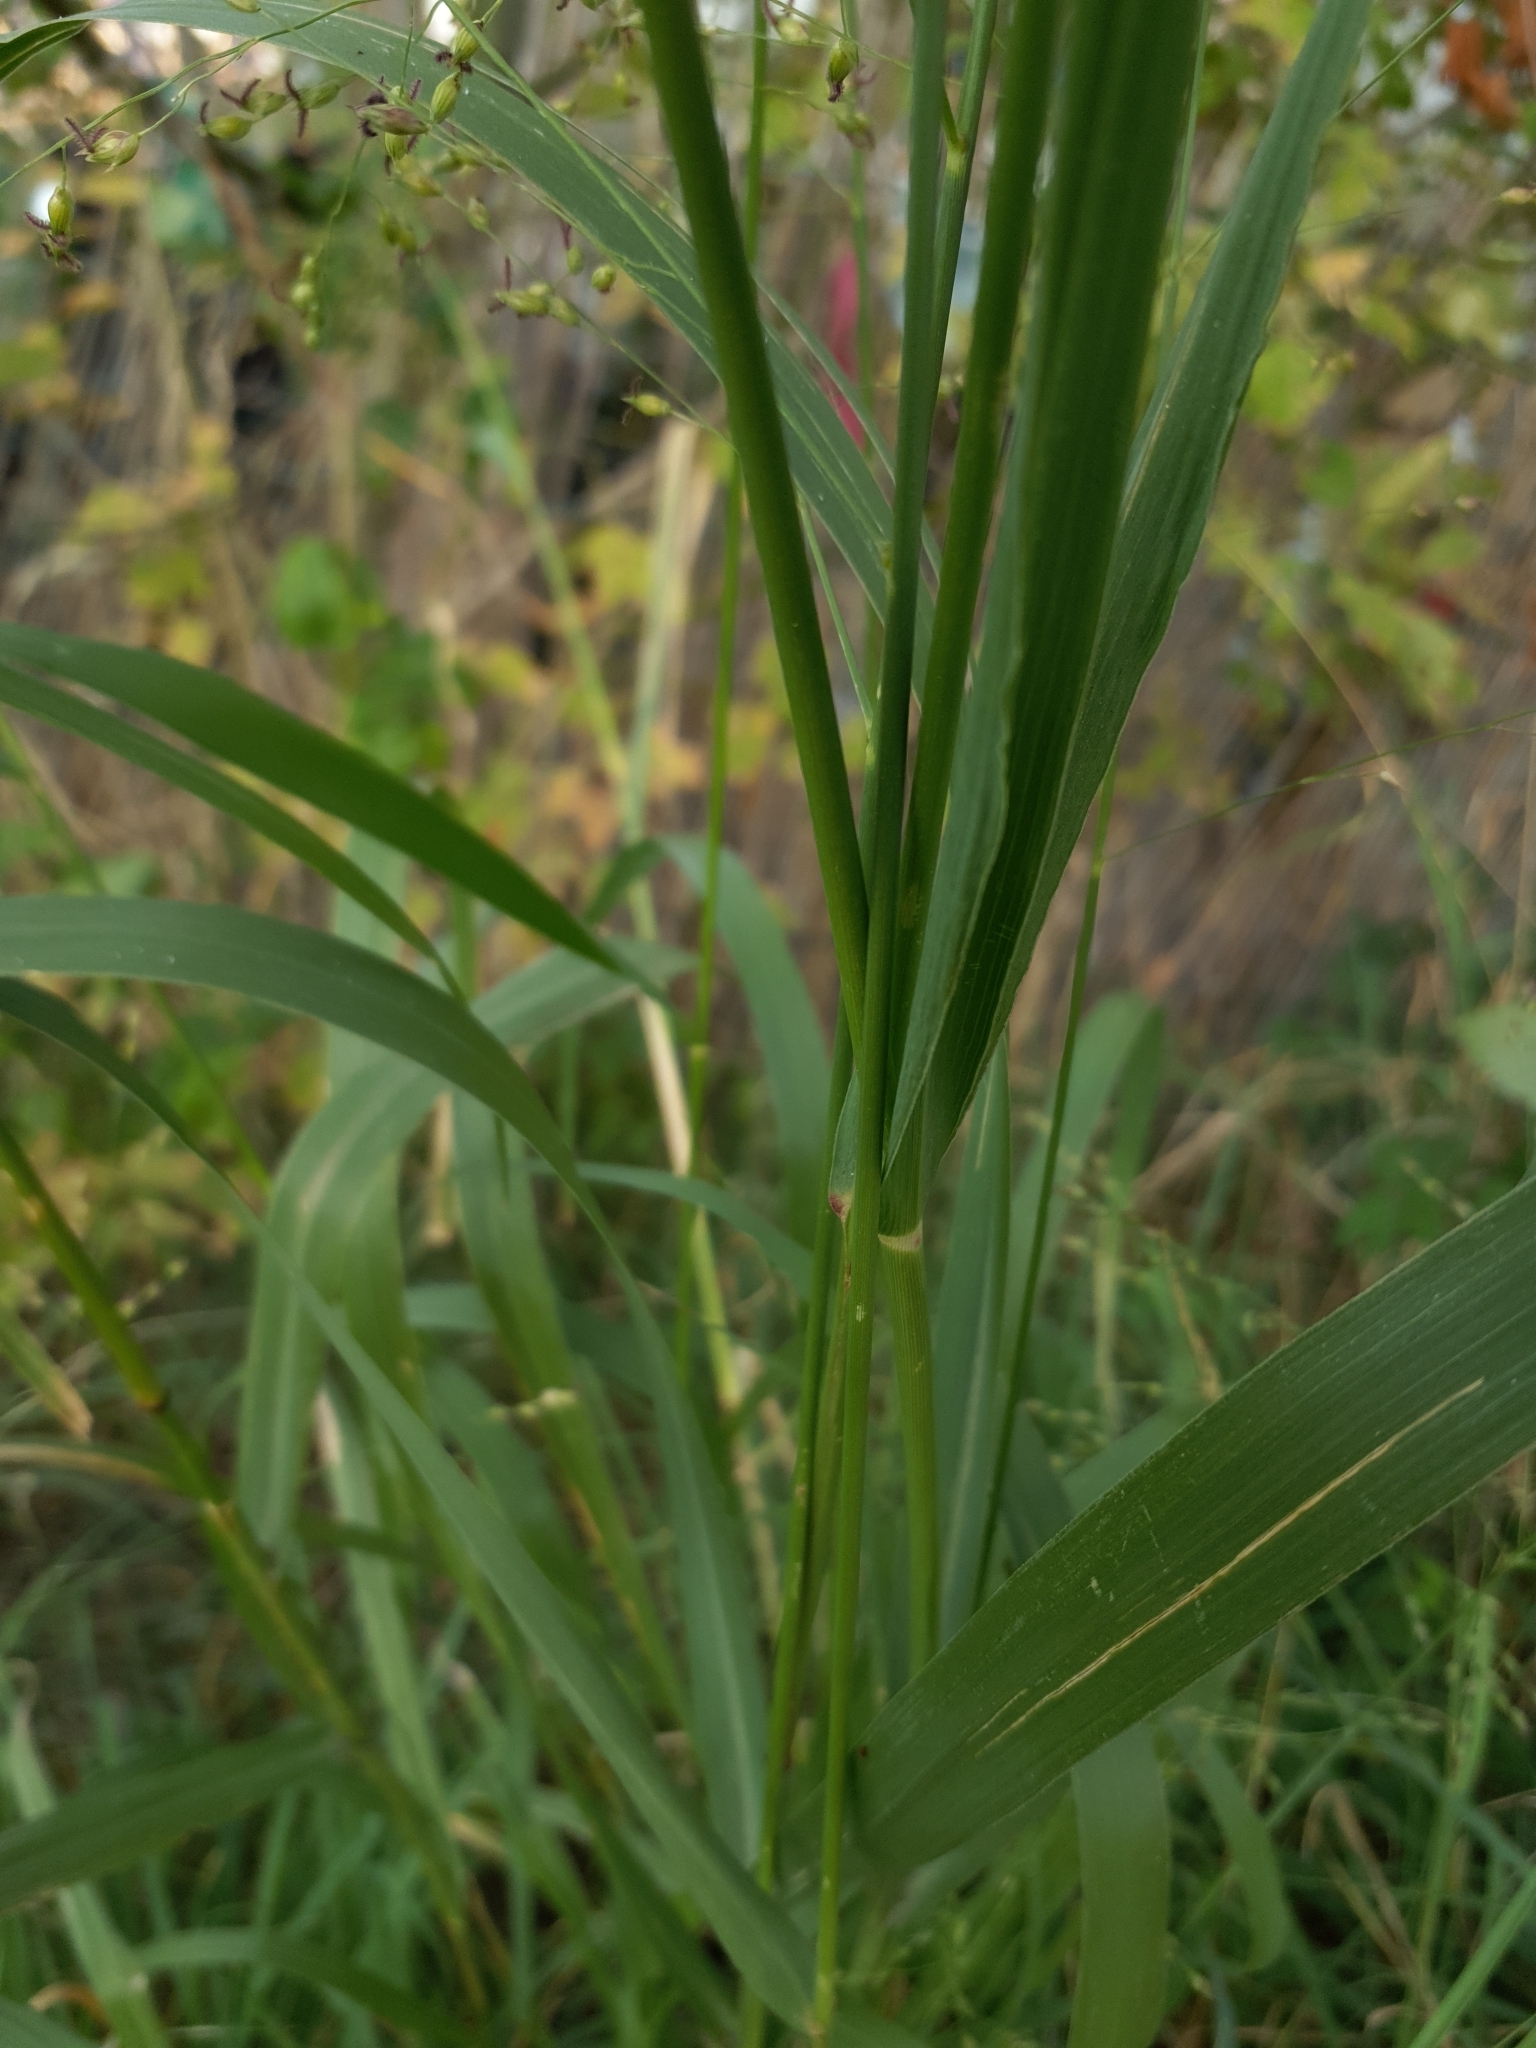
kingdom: Plantae
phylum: Tracheophyta
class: Liliopsida
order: Poales
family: Poaceae
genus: Panicum
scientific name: Panicum virgatum
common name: Switchgrass
